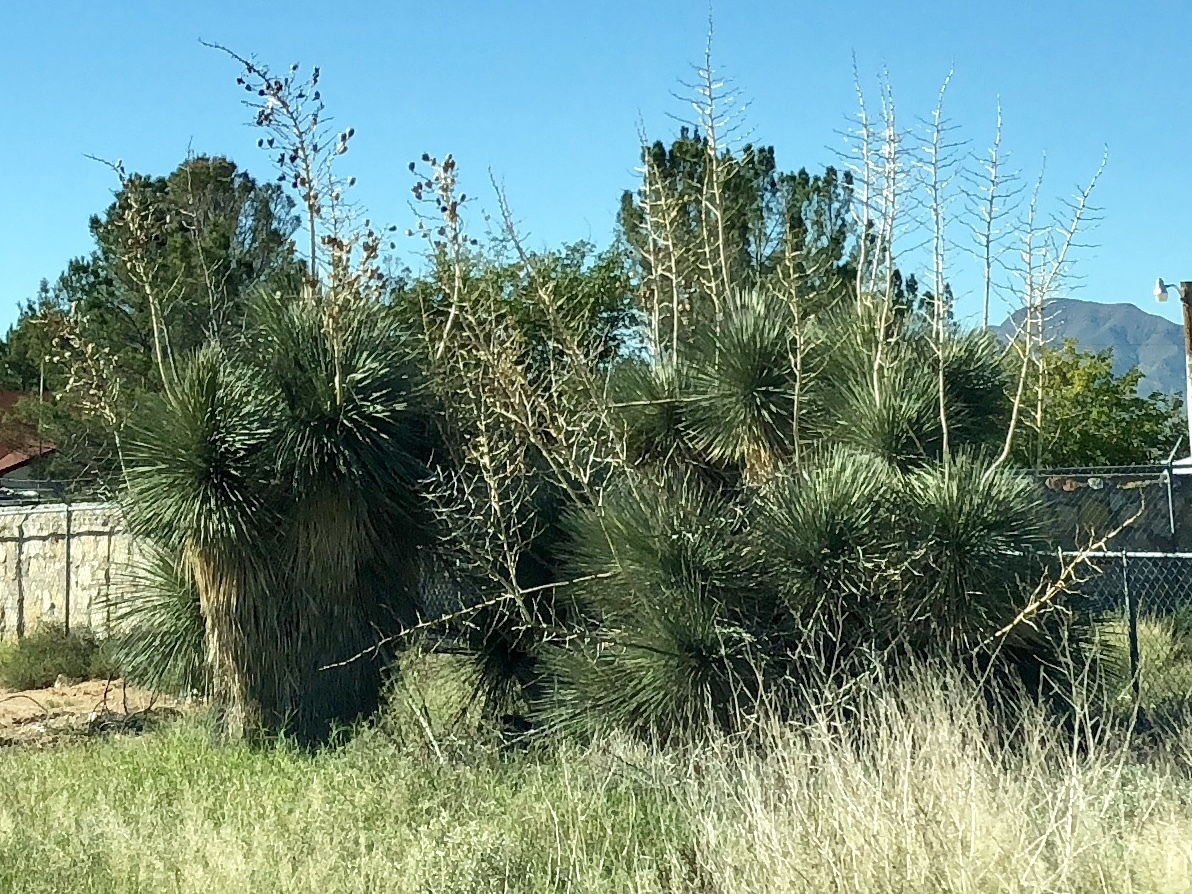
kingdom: Plantae
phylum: Tracheophyta
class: Liliopsida
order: Asparagales
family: Asparagaceae
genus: Yucca
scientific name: Yucca elata
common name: Palmella
